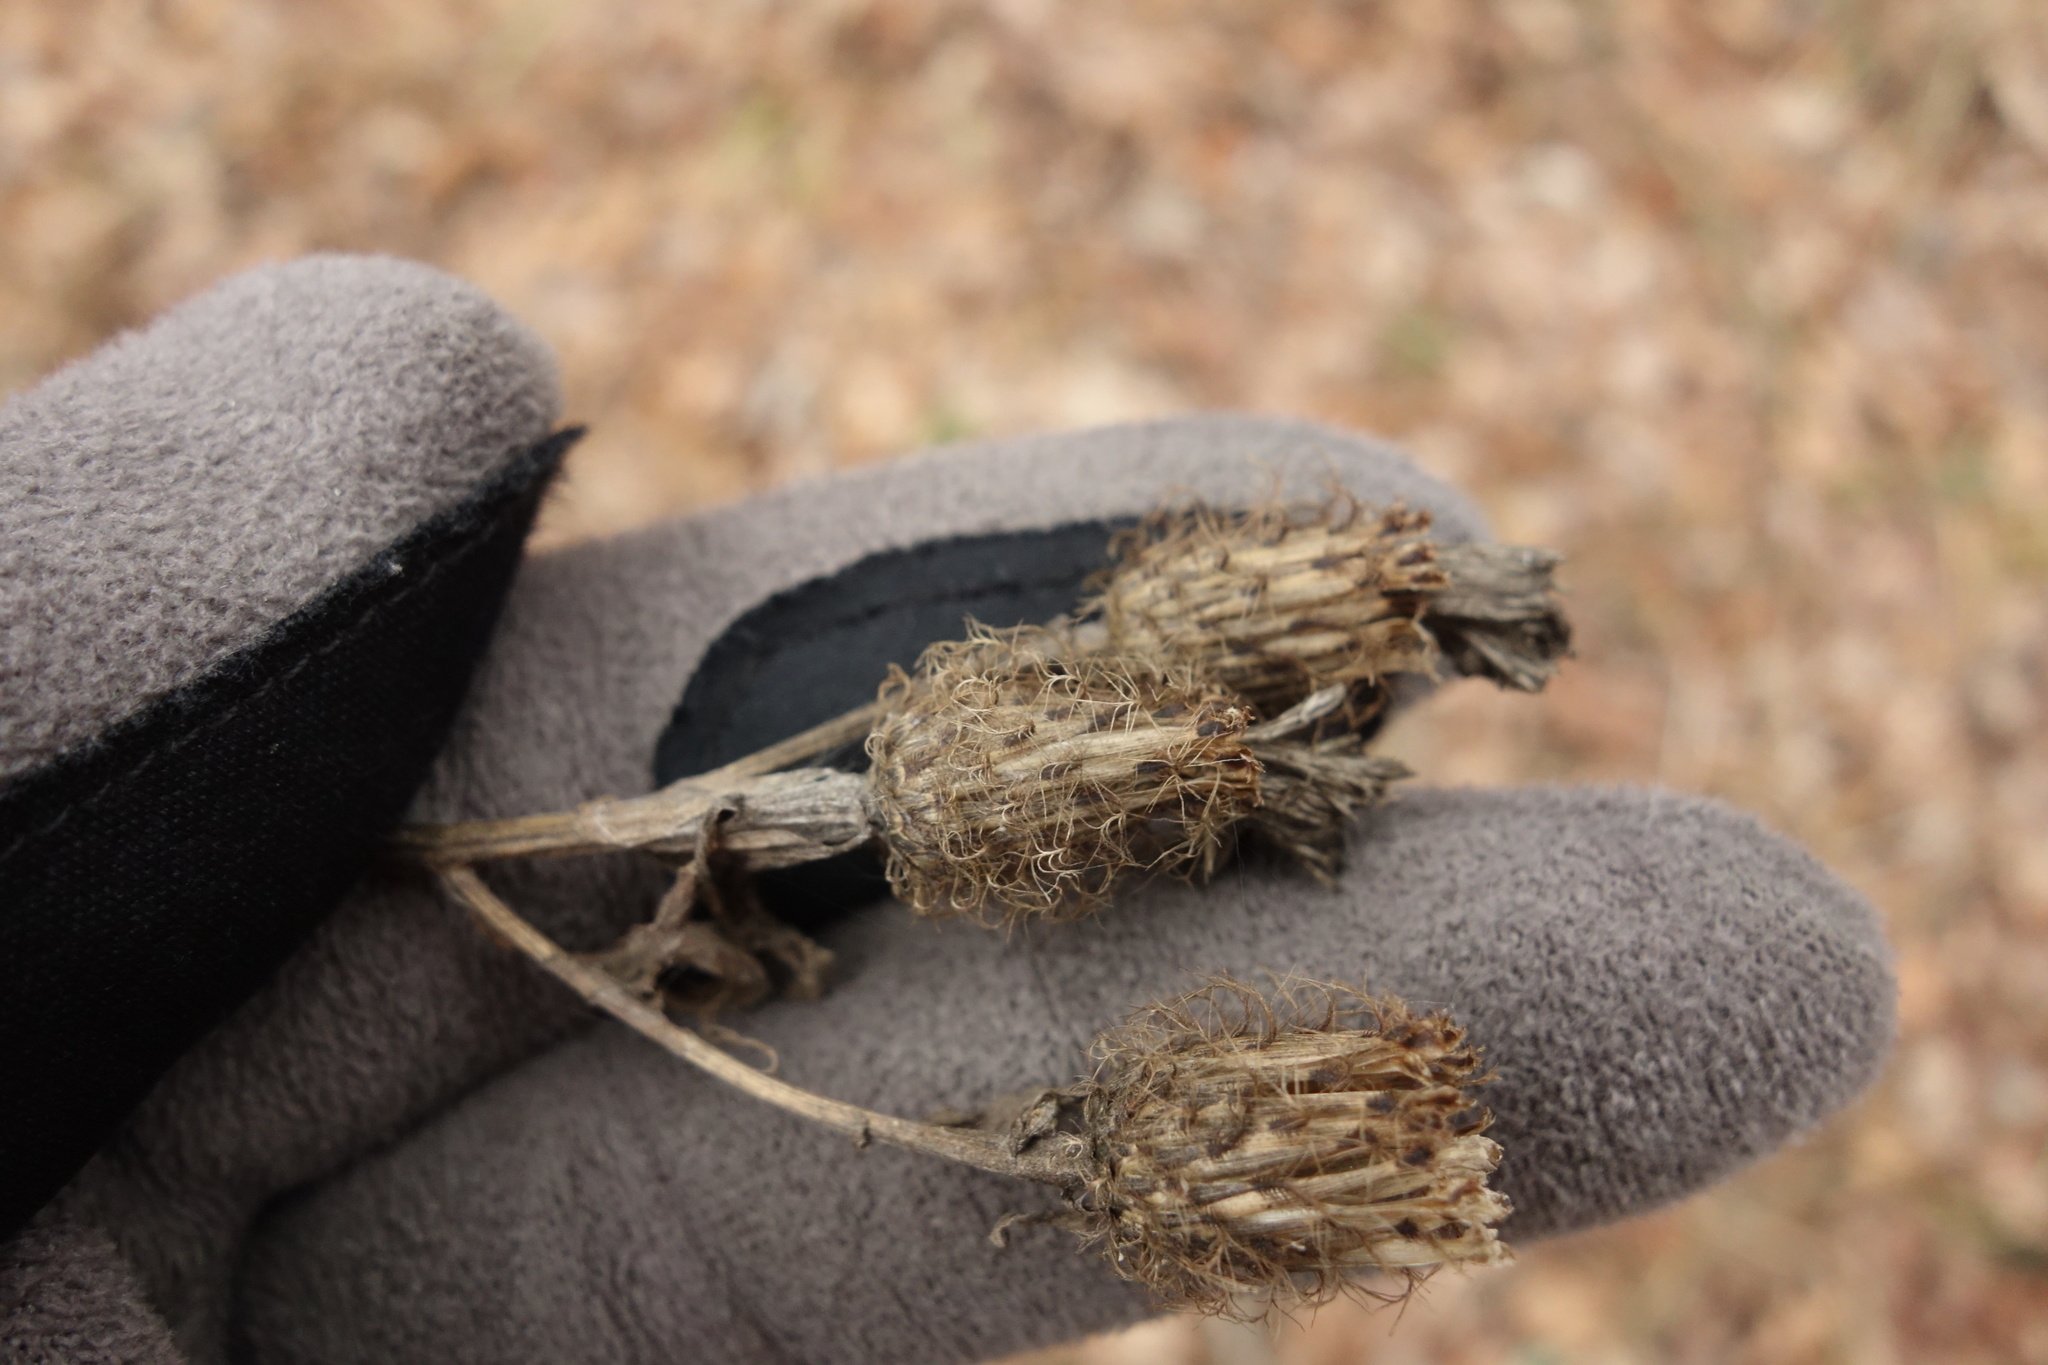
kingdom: Plantae
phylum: Tracheophyta
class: Magnoliopsida
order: Asterales
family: Asteraceae
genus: Centaurea
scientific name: Centaurea pseudophrygia
